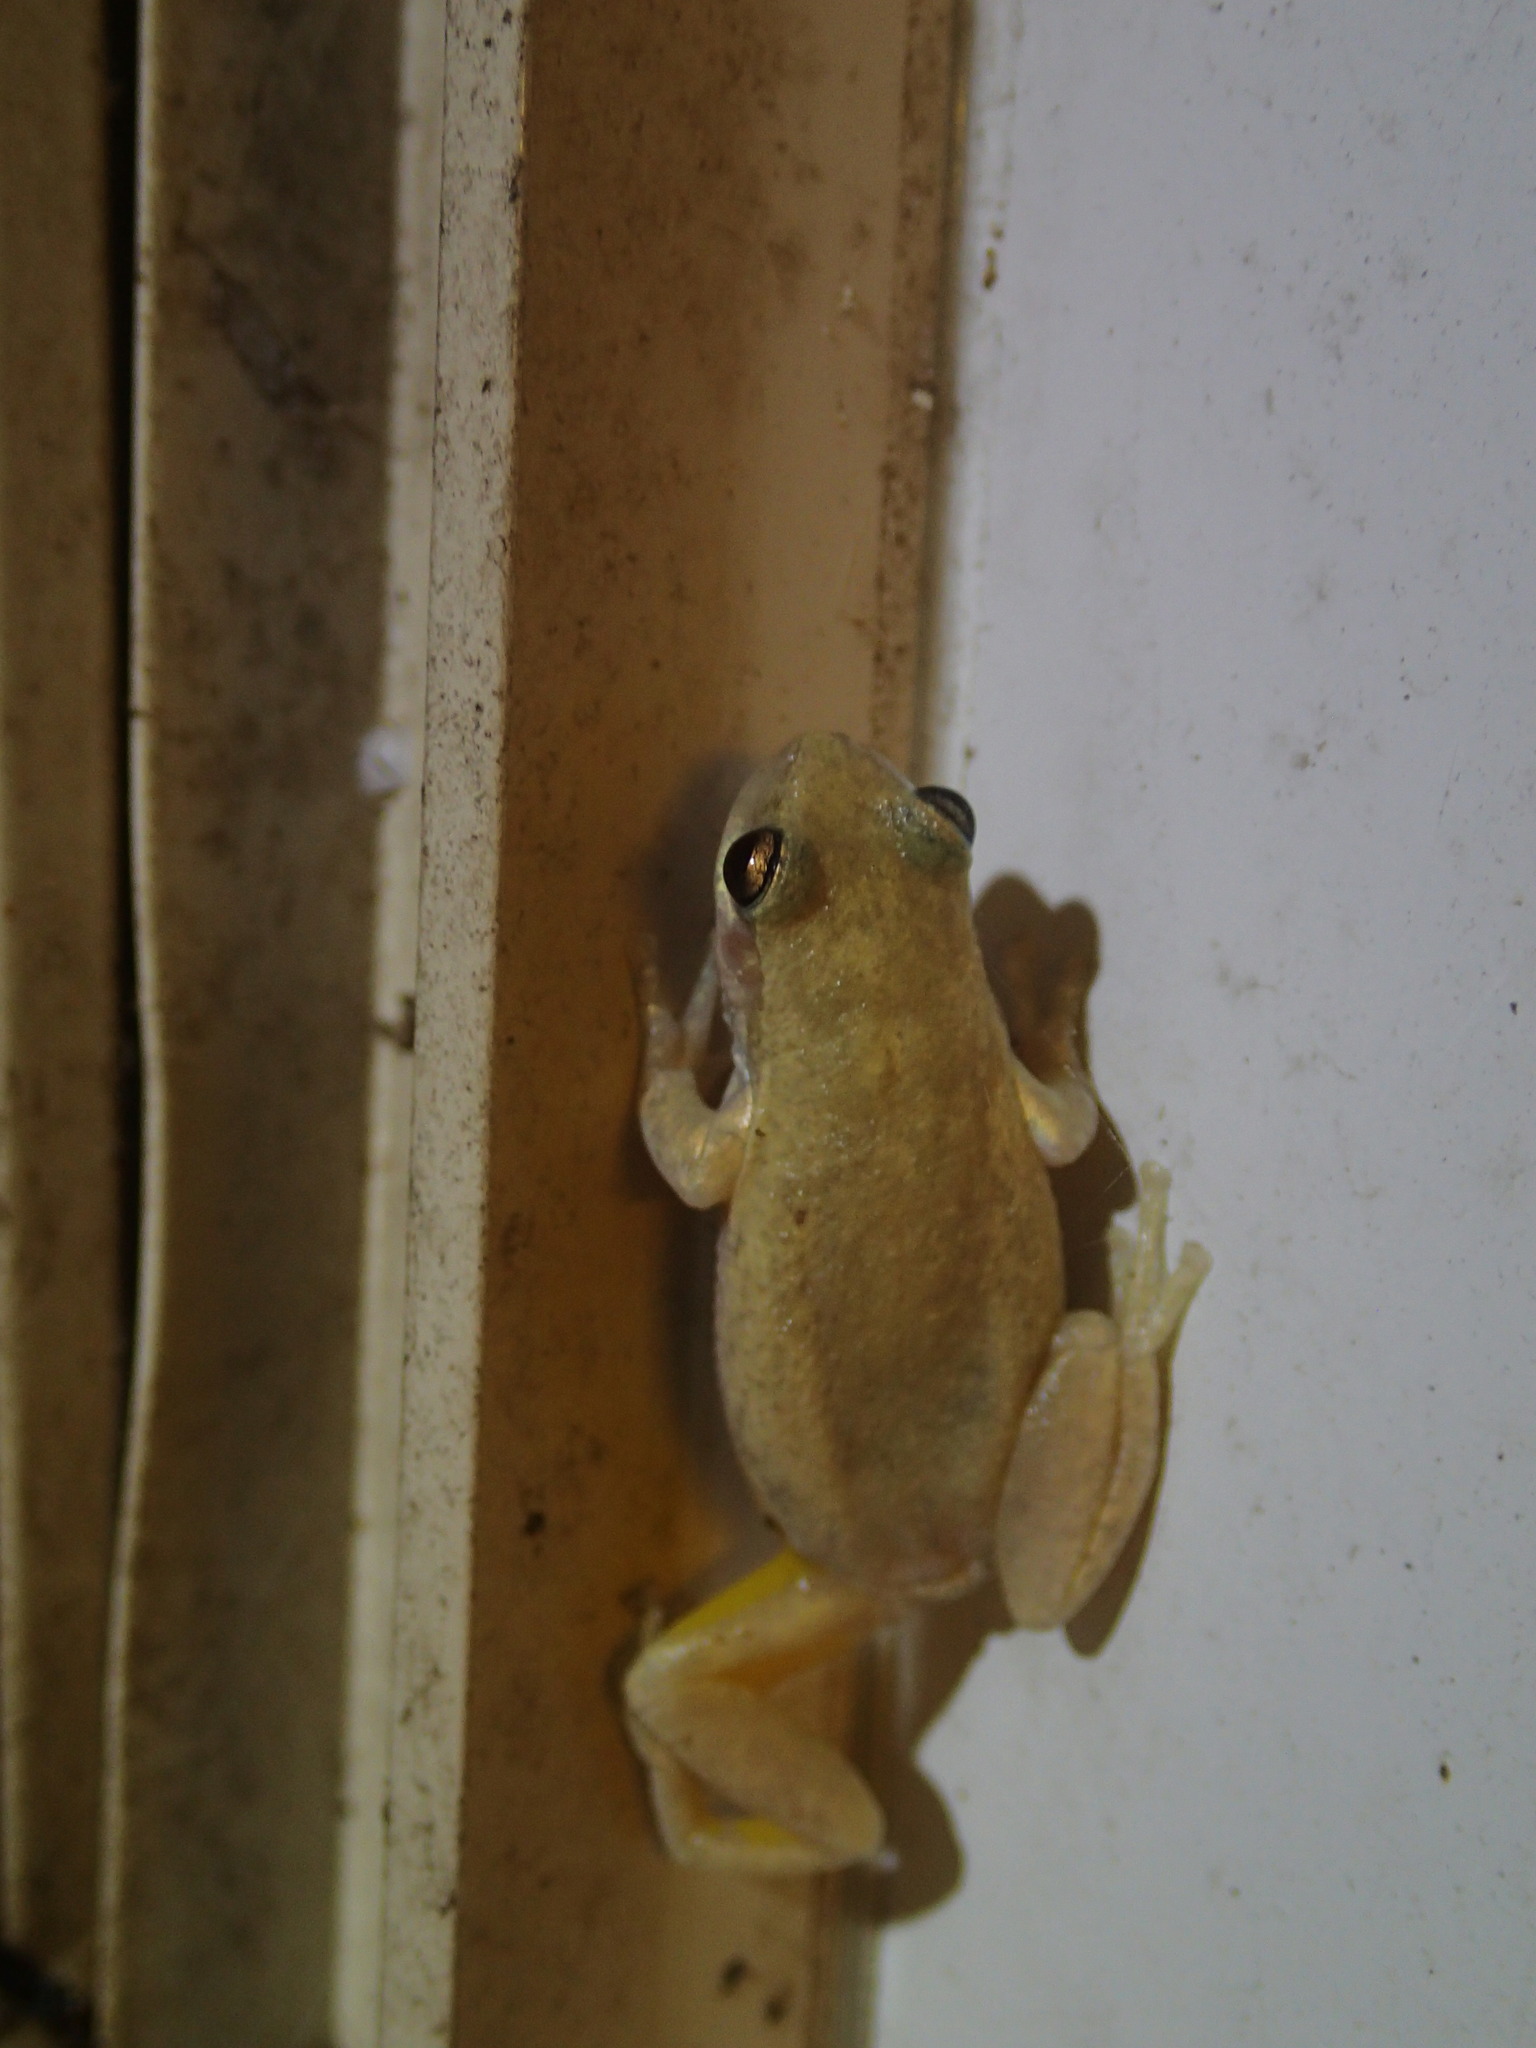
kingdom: Animalia
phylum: Chordata
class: Amphibia
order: Anura
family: Pelodryadidae
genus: Litoria
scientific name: Litoria rubella
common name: Desert tree frog
